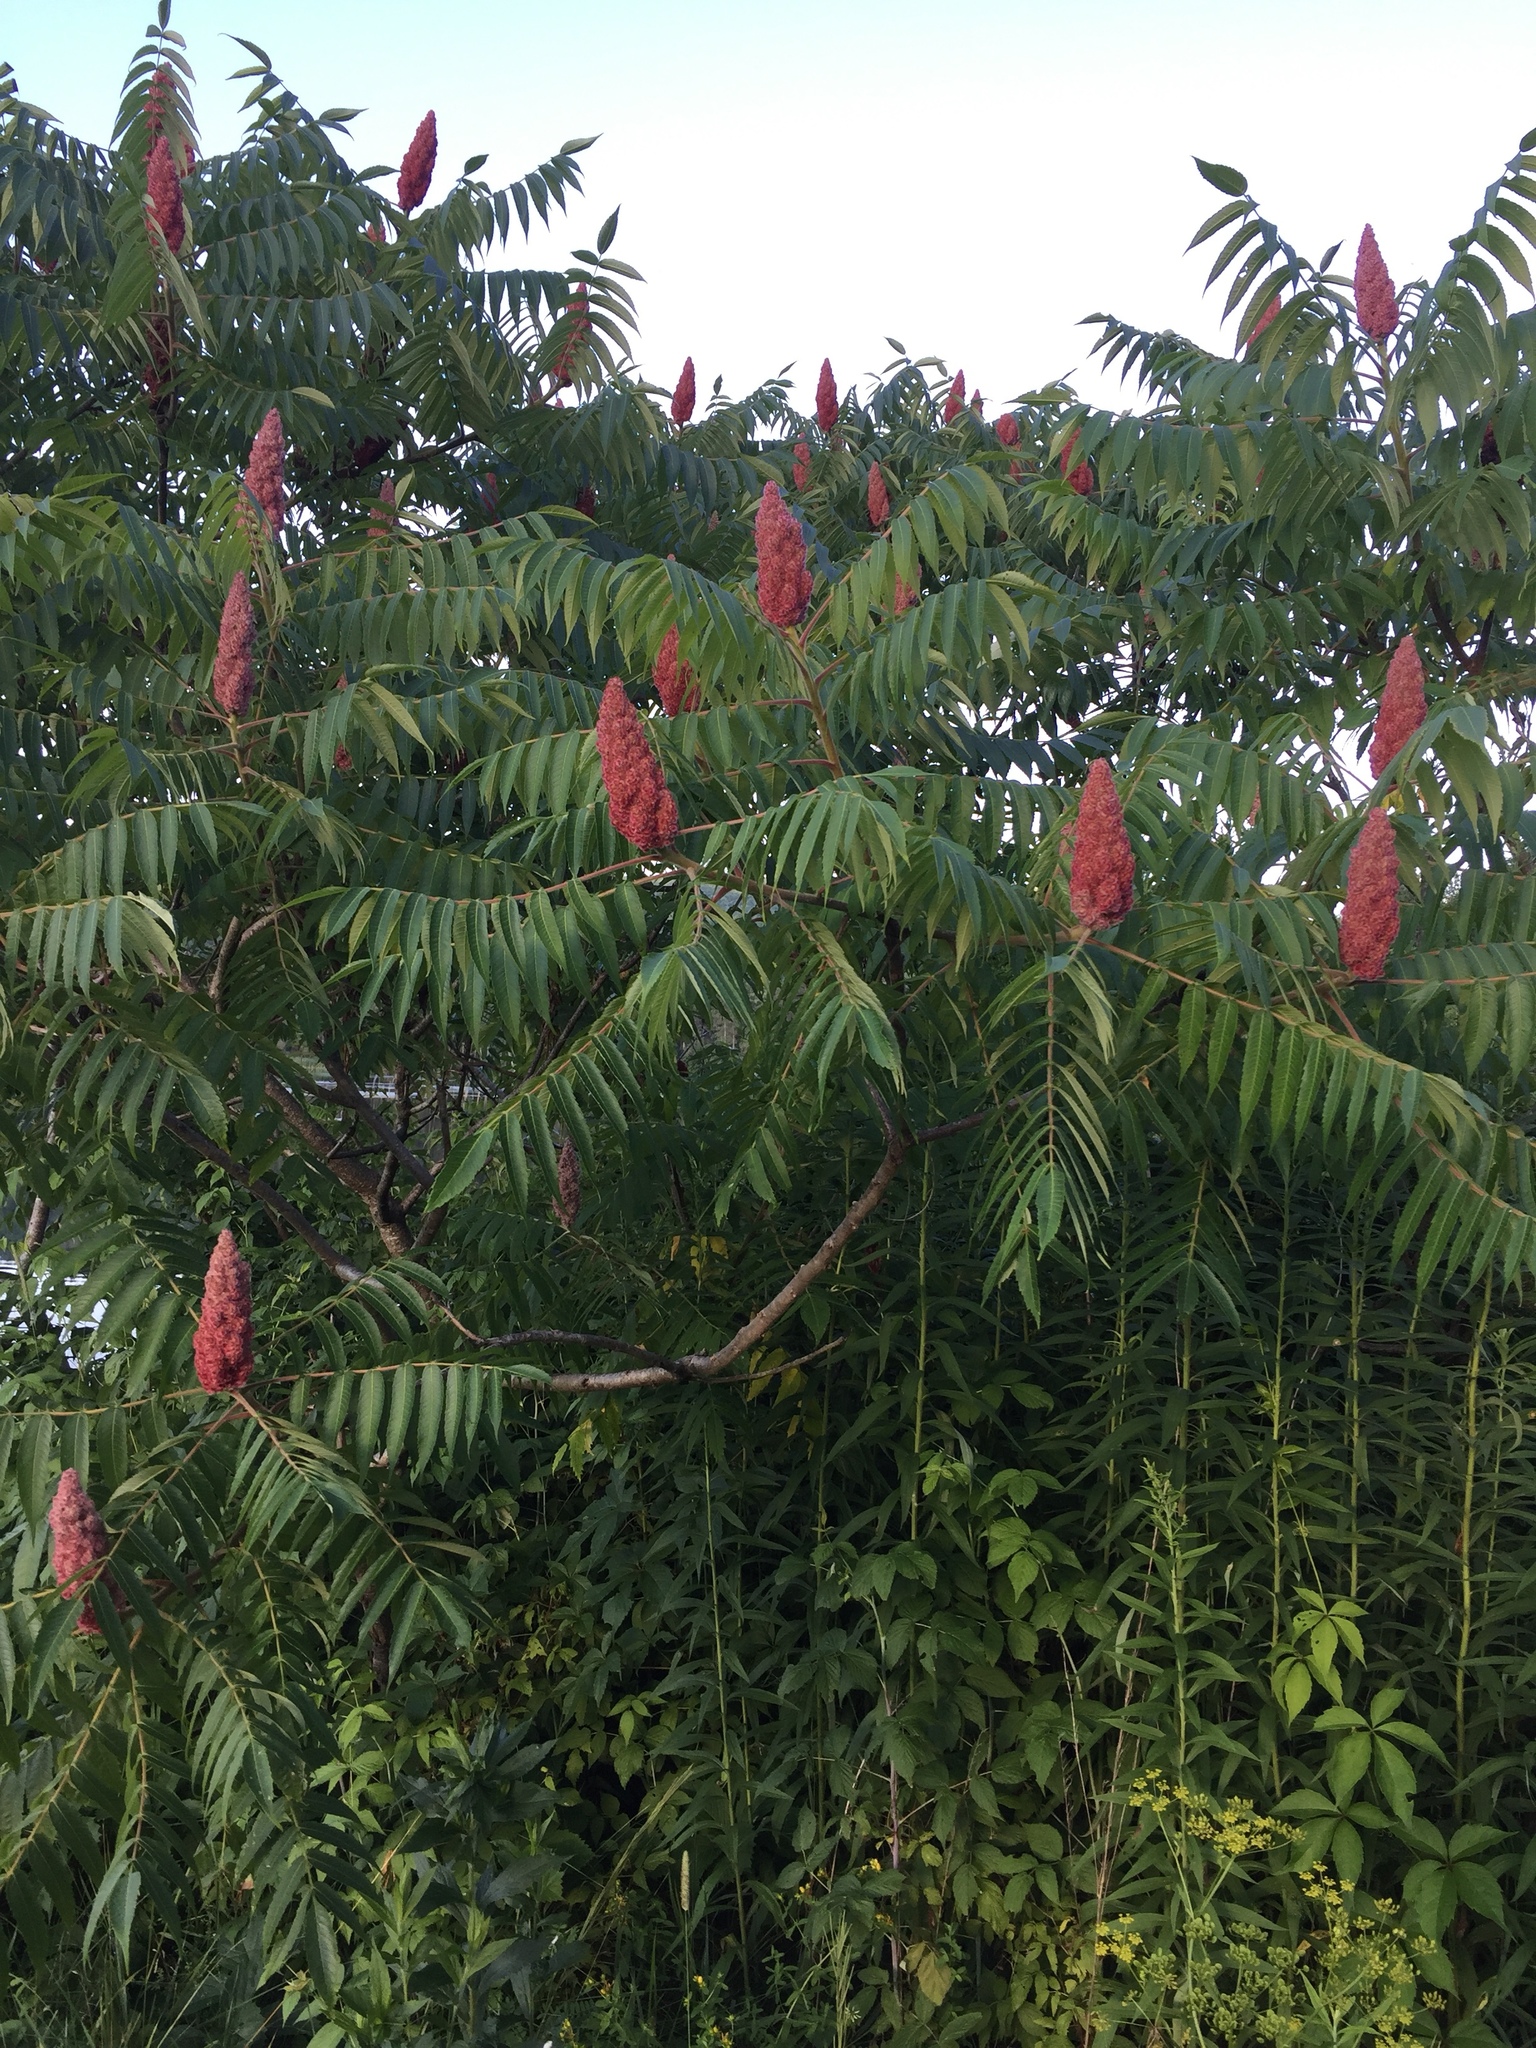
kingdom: Plantae
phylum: Tracheophyta
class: Magnoliopsida
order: Sapindales
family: Anacardiaceae
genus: Rhus
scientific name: Rhus typhina
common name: Staghorn sumac
